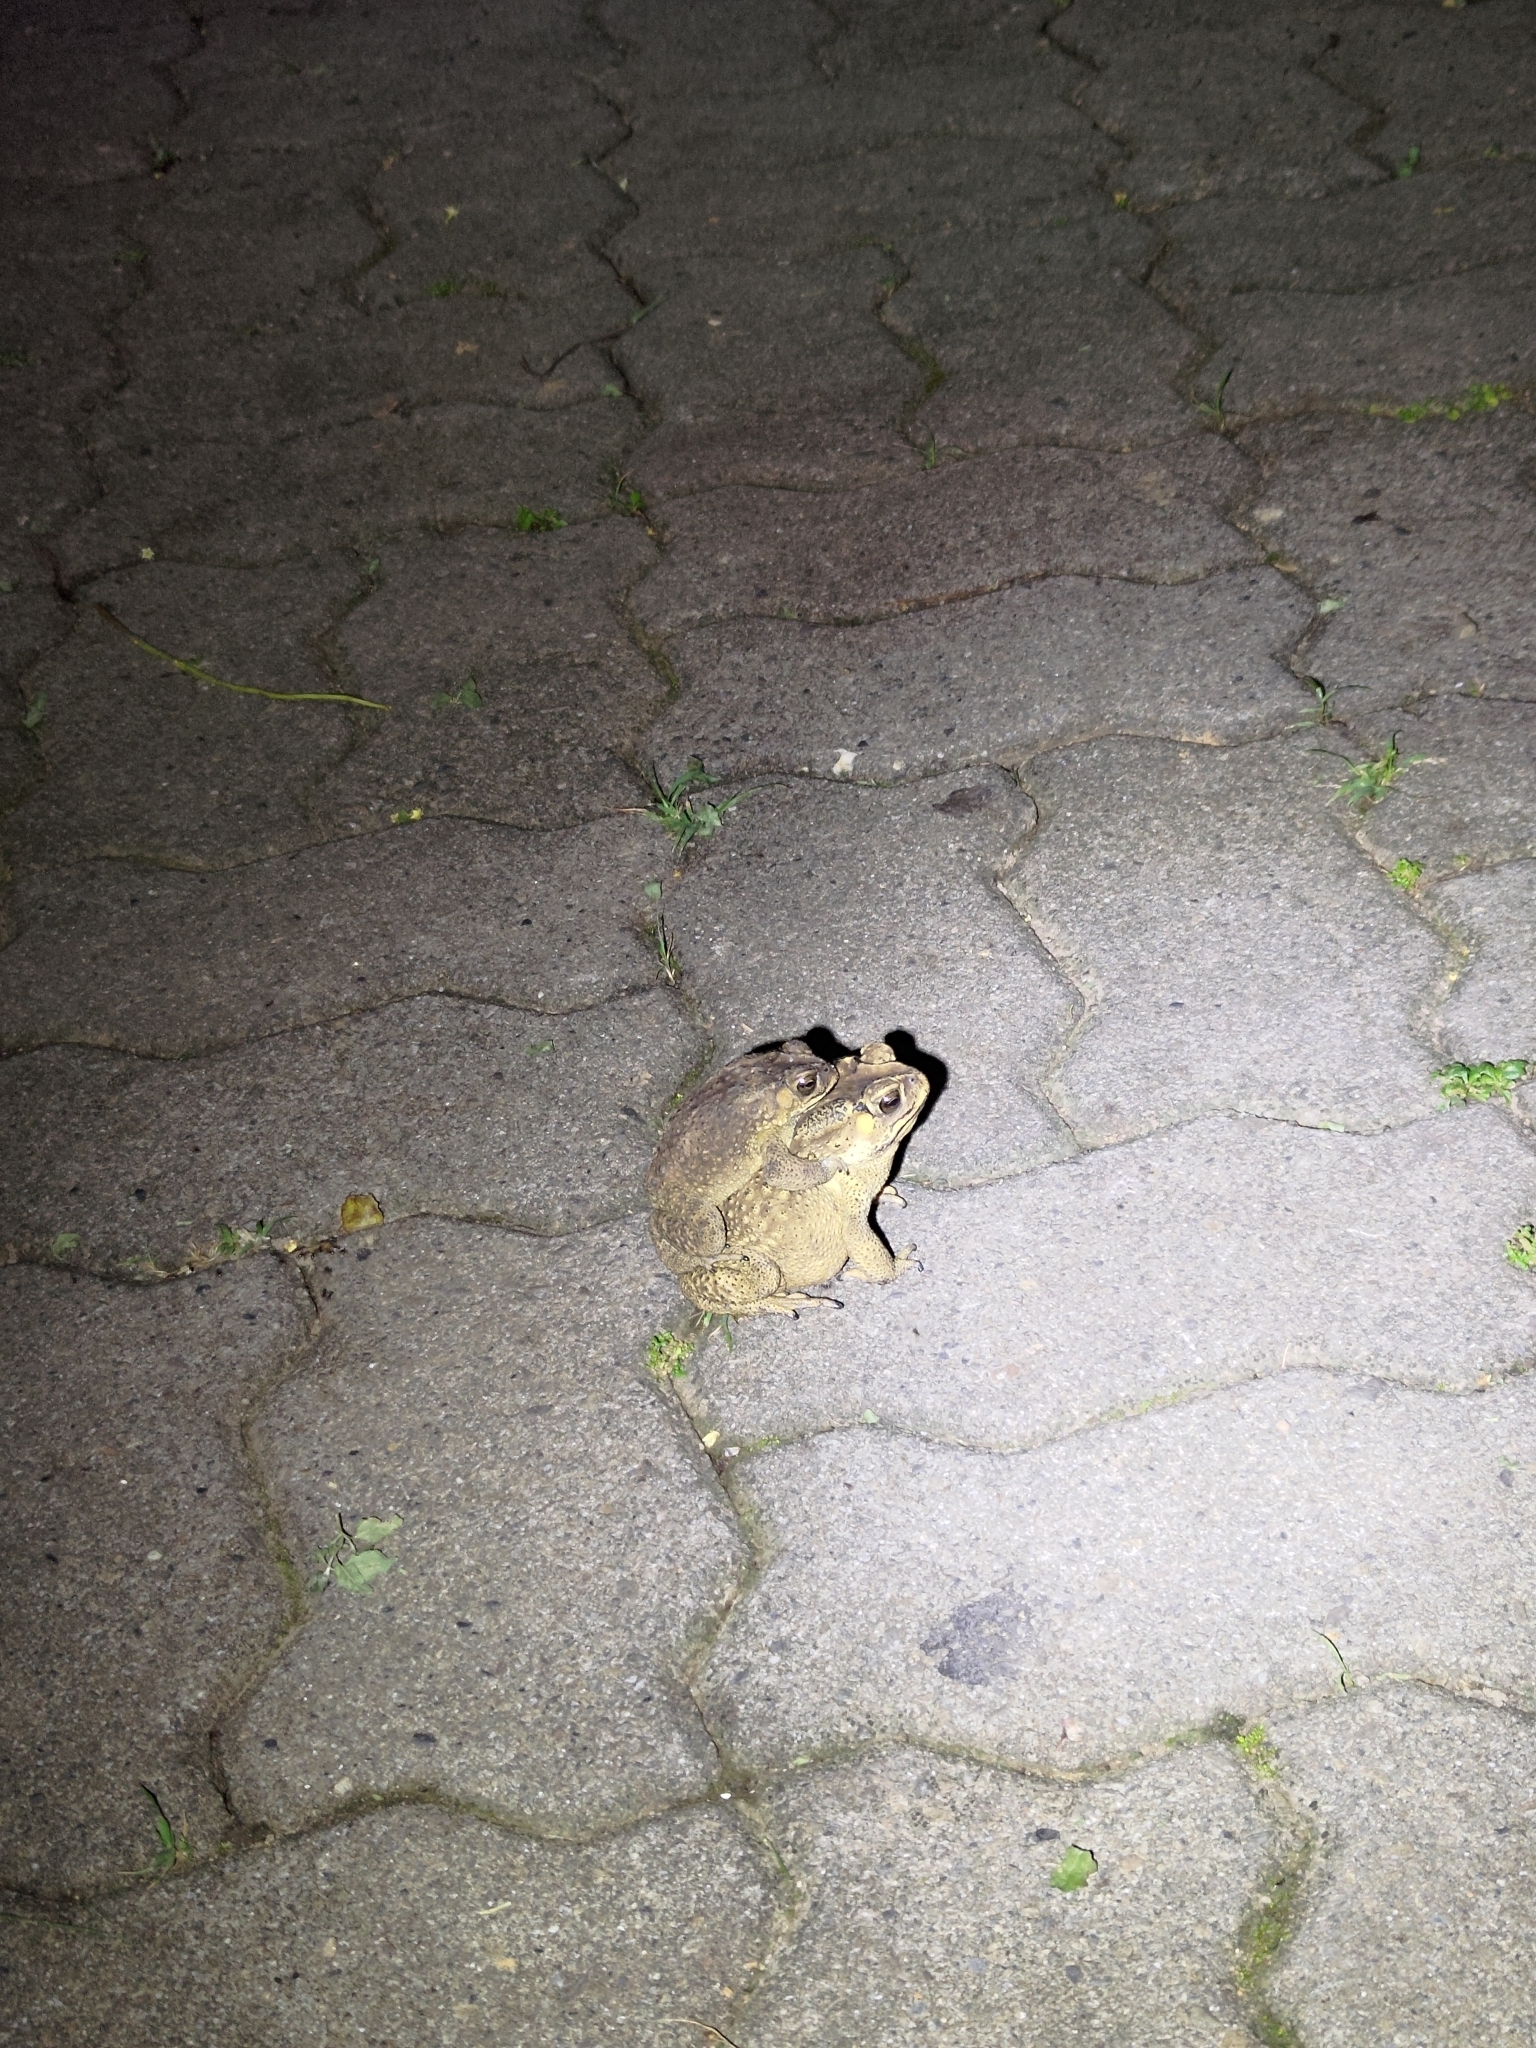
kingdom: Animalia
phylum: Chordata
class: Amphibia
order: Anura
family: Bufonidae
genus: Duttaphrynus
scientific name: Duttaphrynus melanostictus
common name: Common sunda toad
